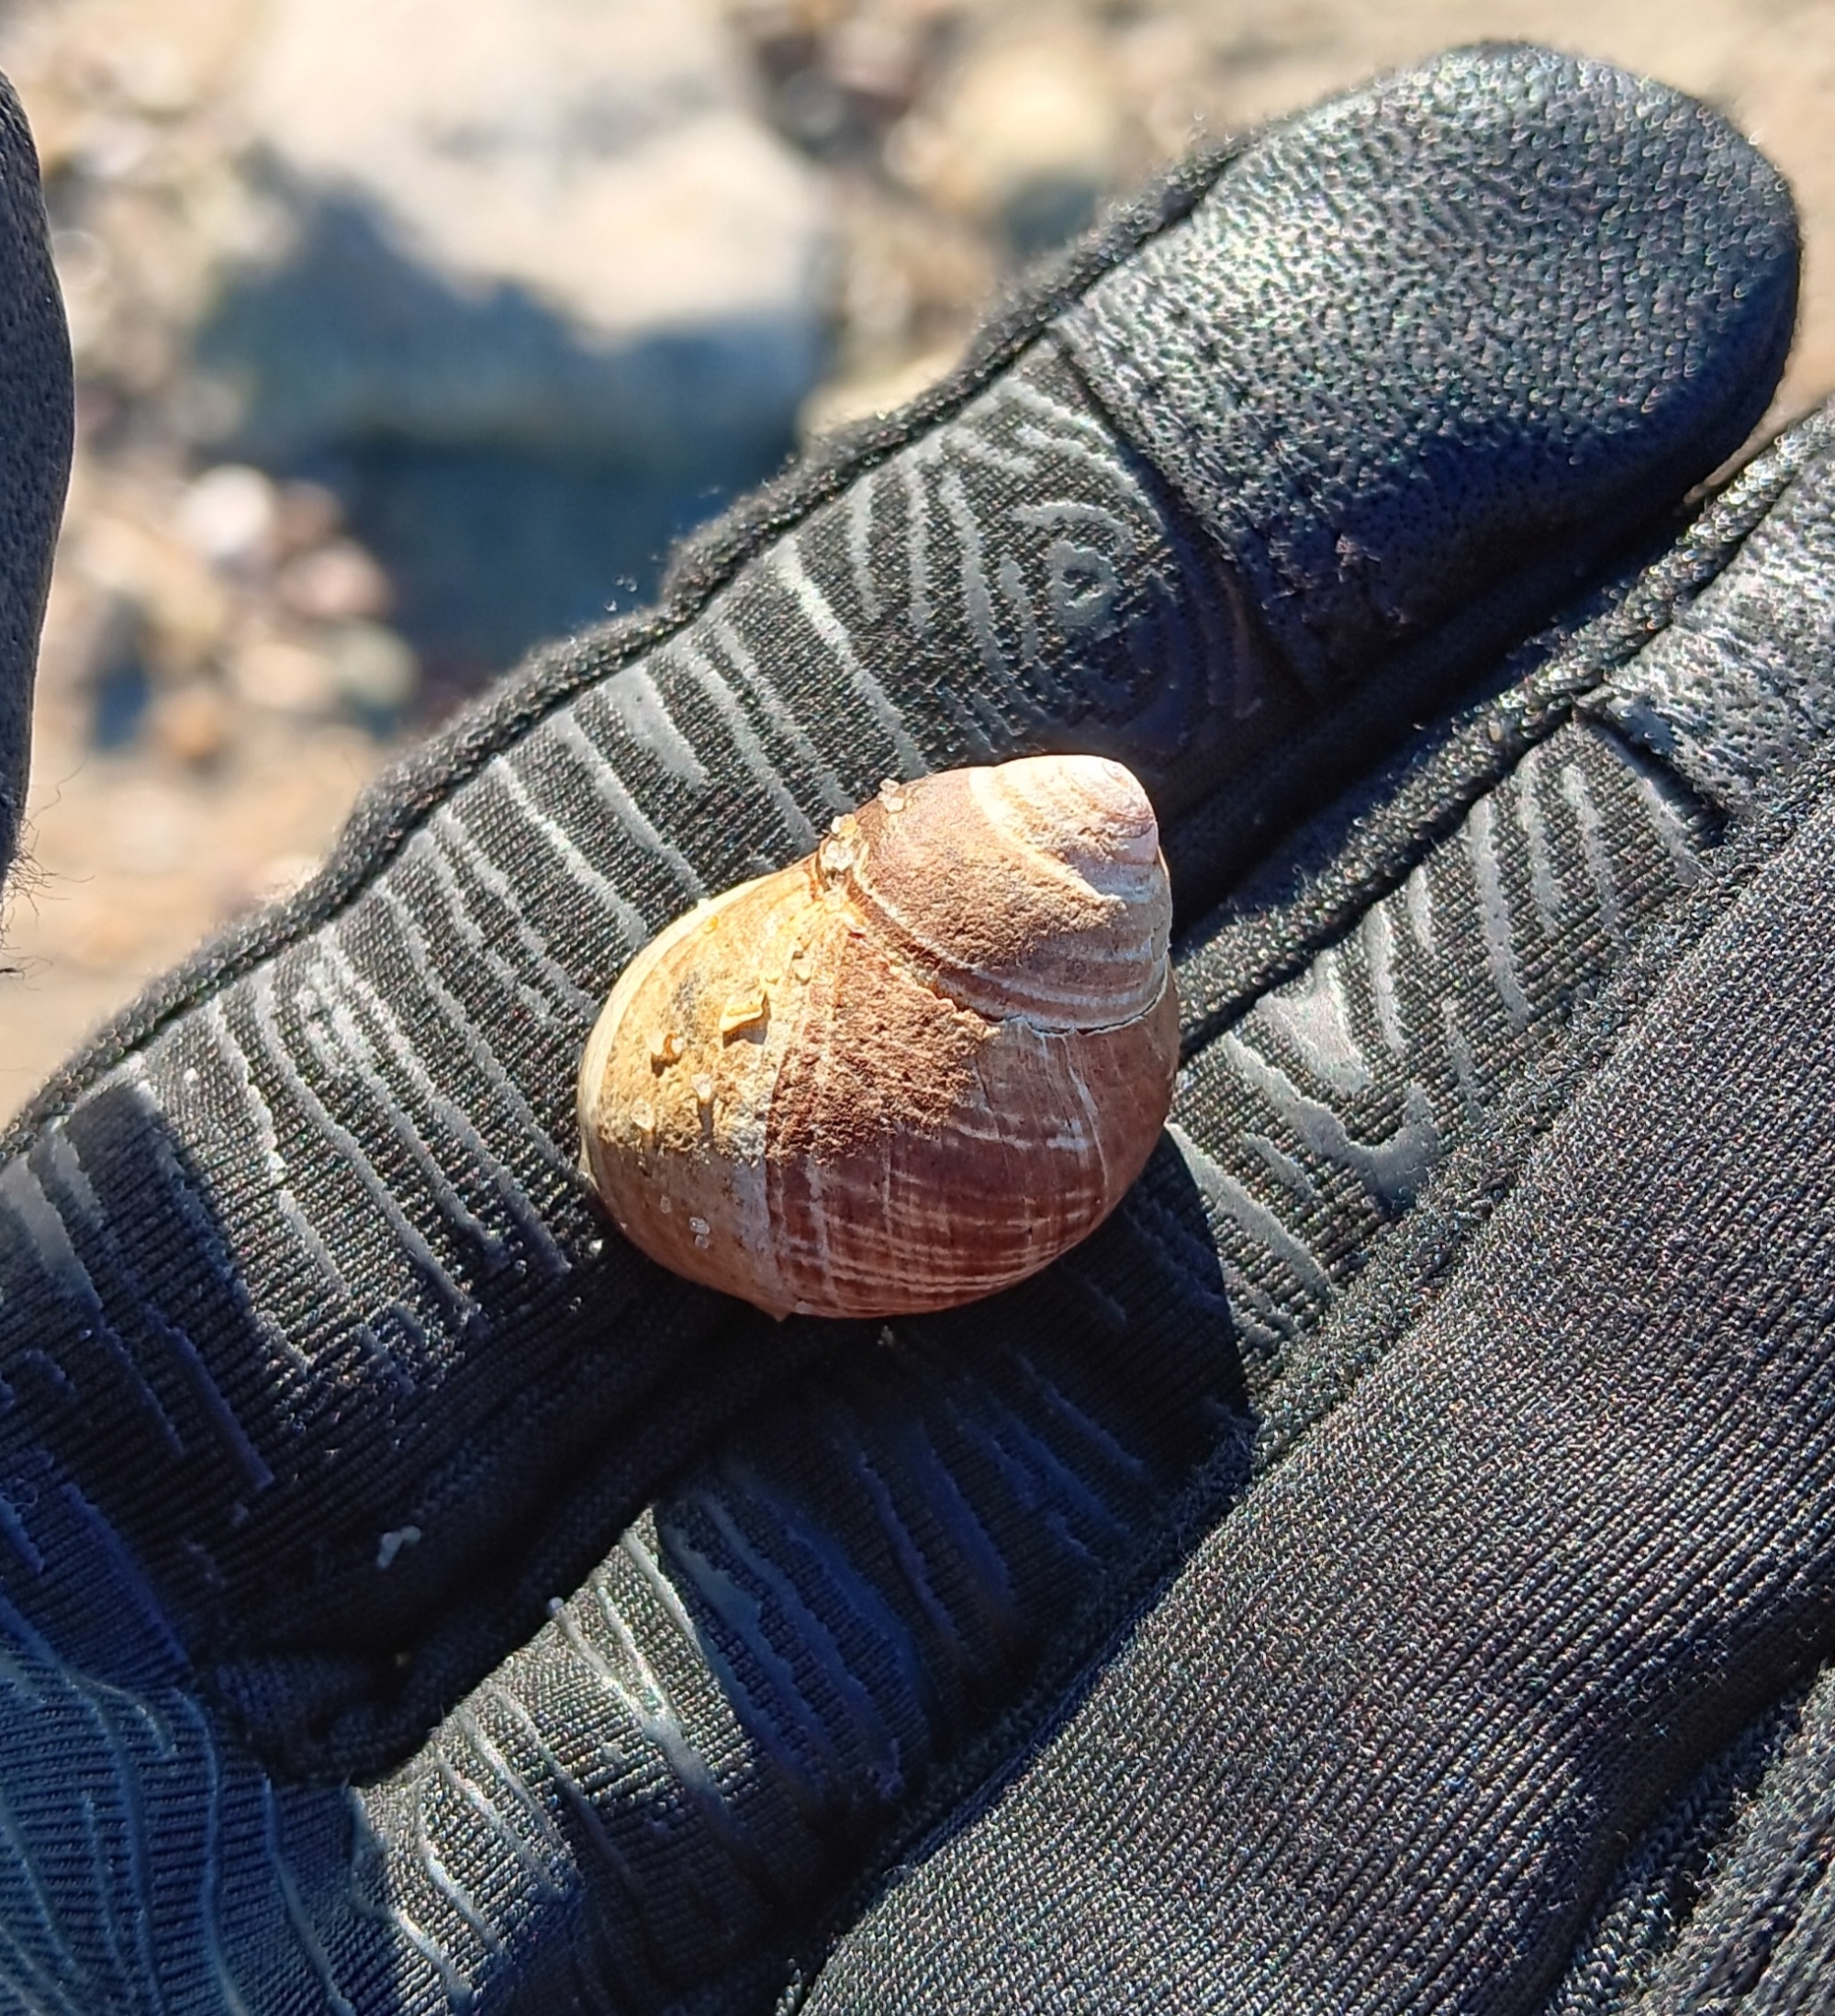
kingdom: Animalia
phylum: Mollusca
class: Gastropoda
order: Littorinimorpha
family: Littorinidae
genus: Littorina
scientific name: Littorina littorea
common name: Common periwinkle
